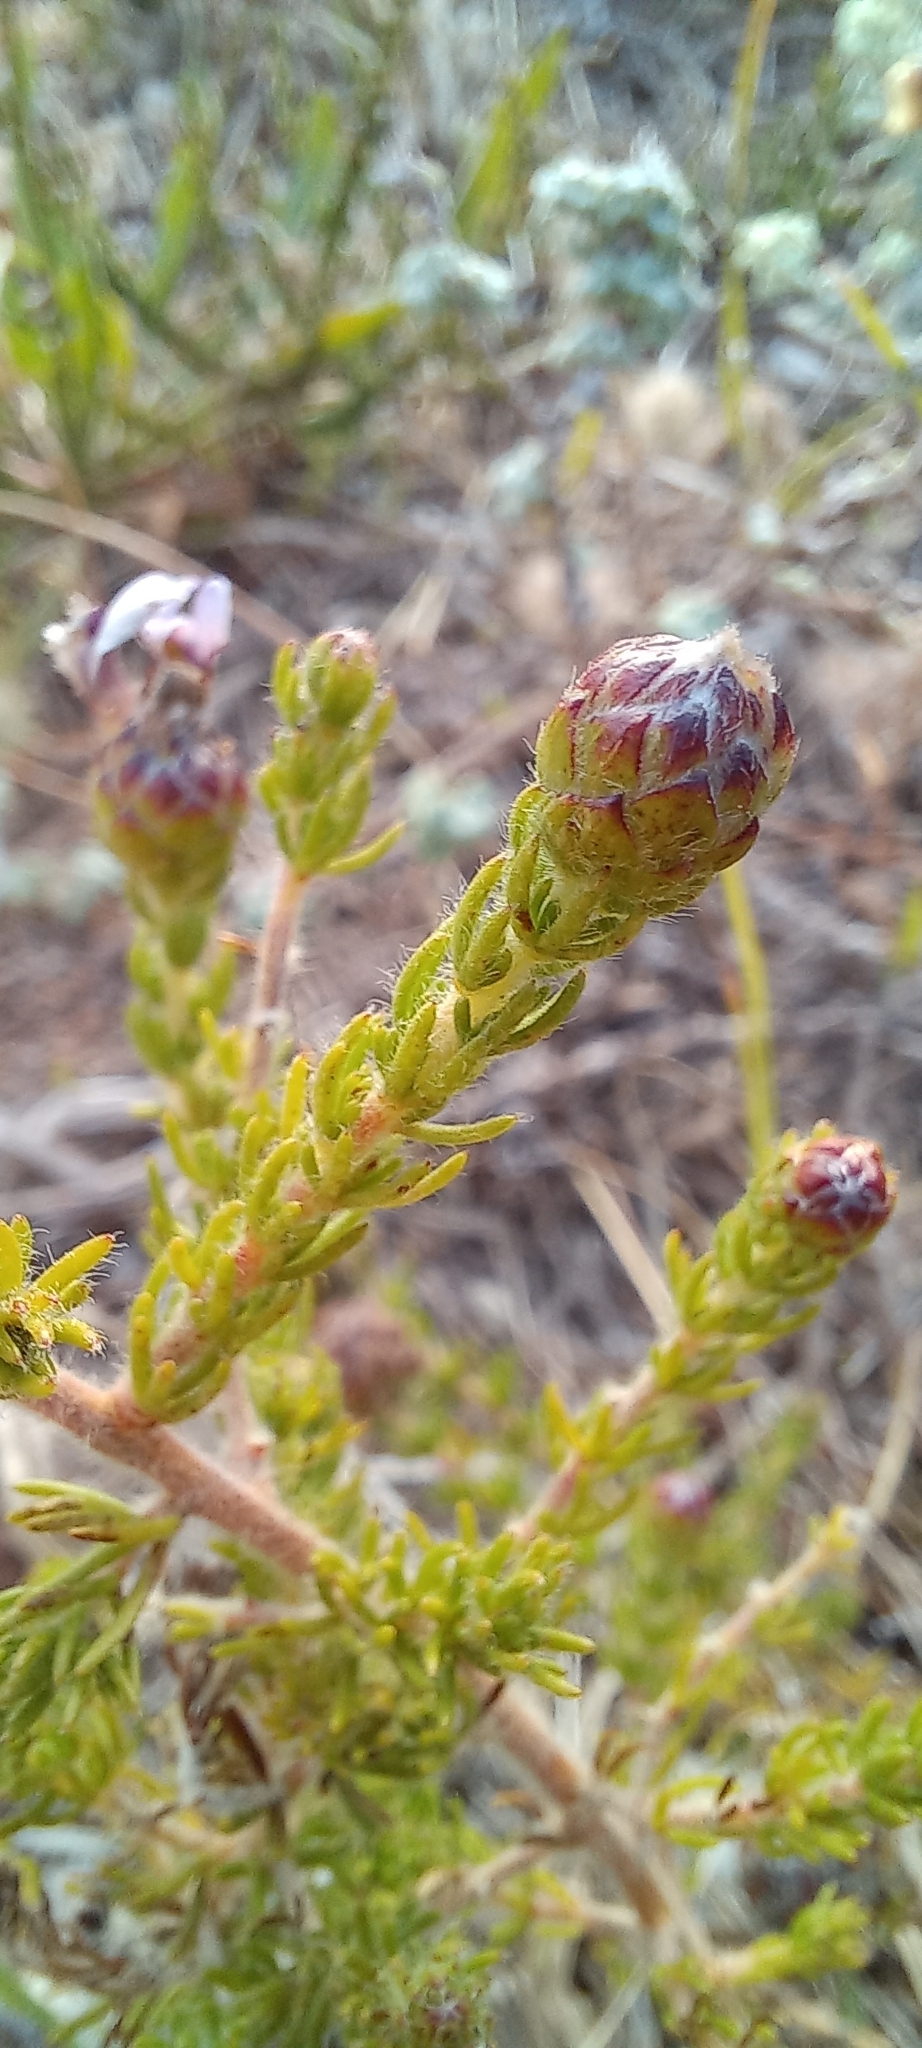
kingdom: Plantae
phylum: Tracheophyta
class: Magnoliopsida
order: Fabales
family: Fabaceae
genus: Aspalathus
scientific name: Aspalathus cephalotes
